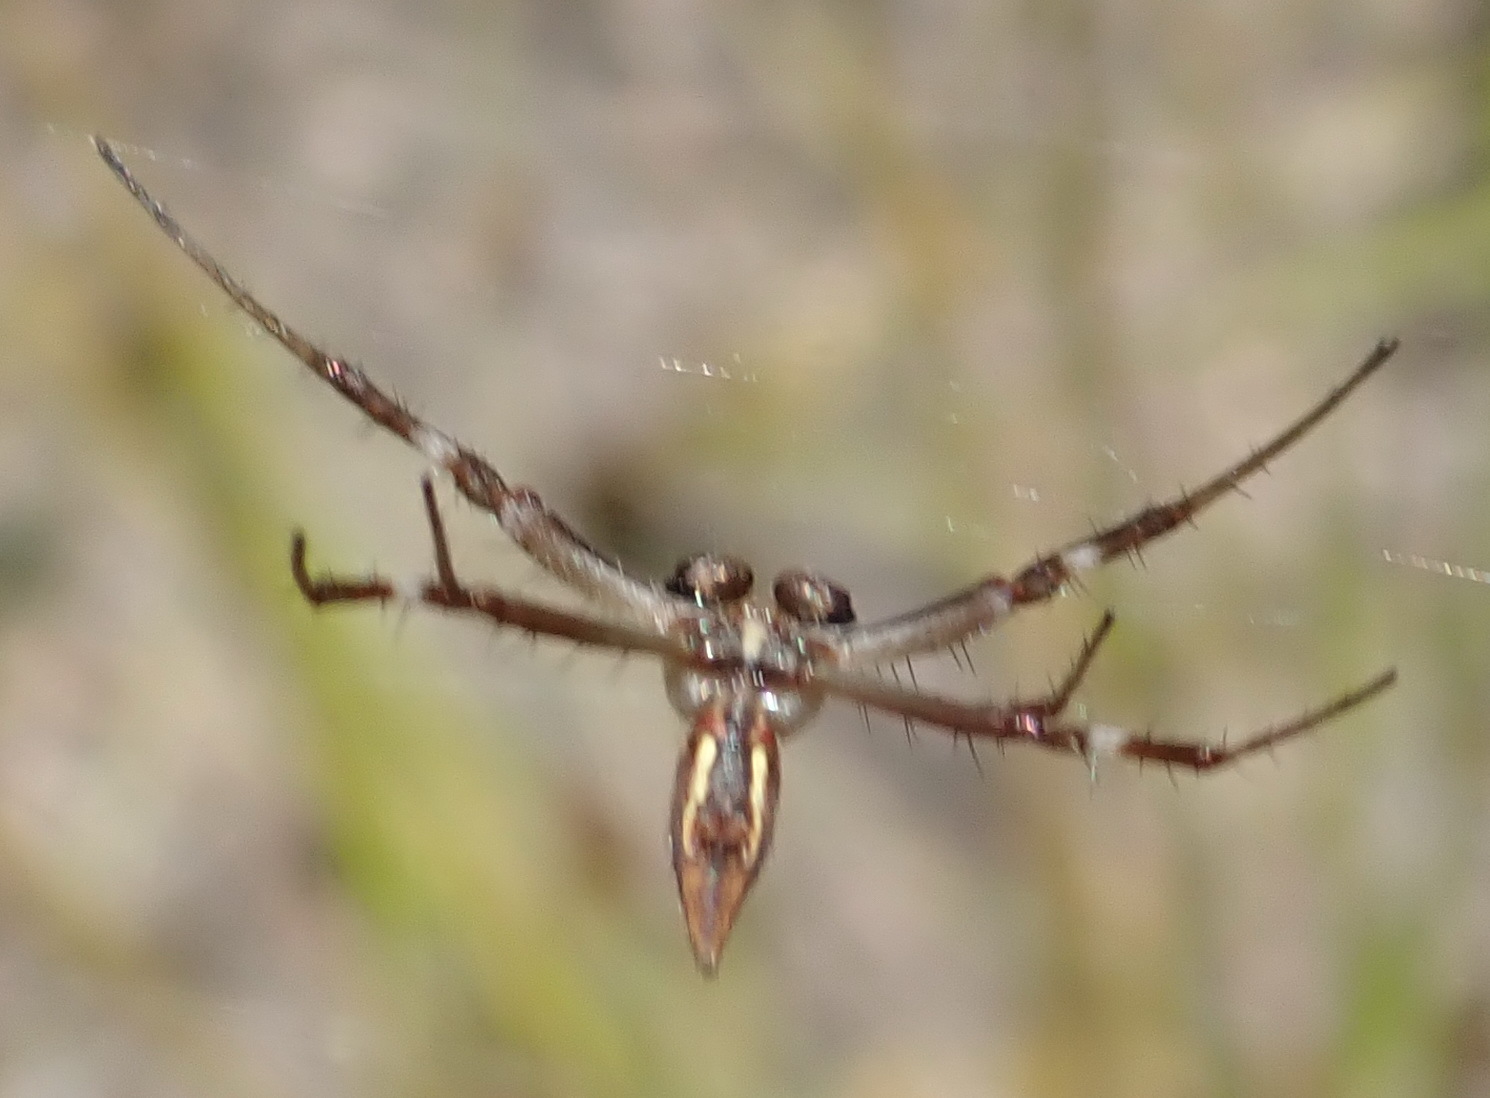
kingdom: Animalia
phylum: Arthropoda
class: Arachnida
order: Araneae
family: Araneidae
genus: Argiope
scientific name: Argiope australis
